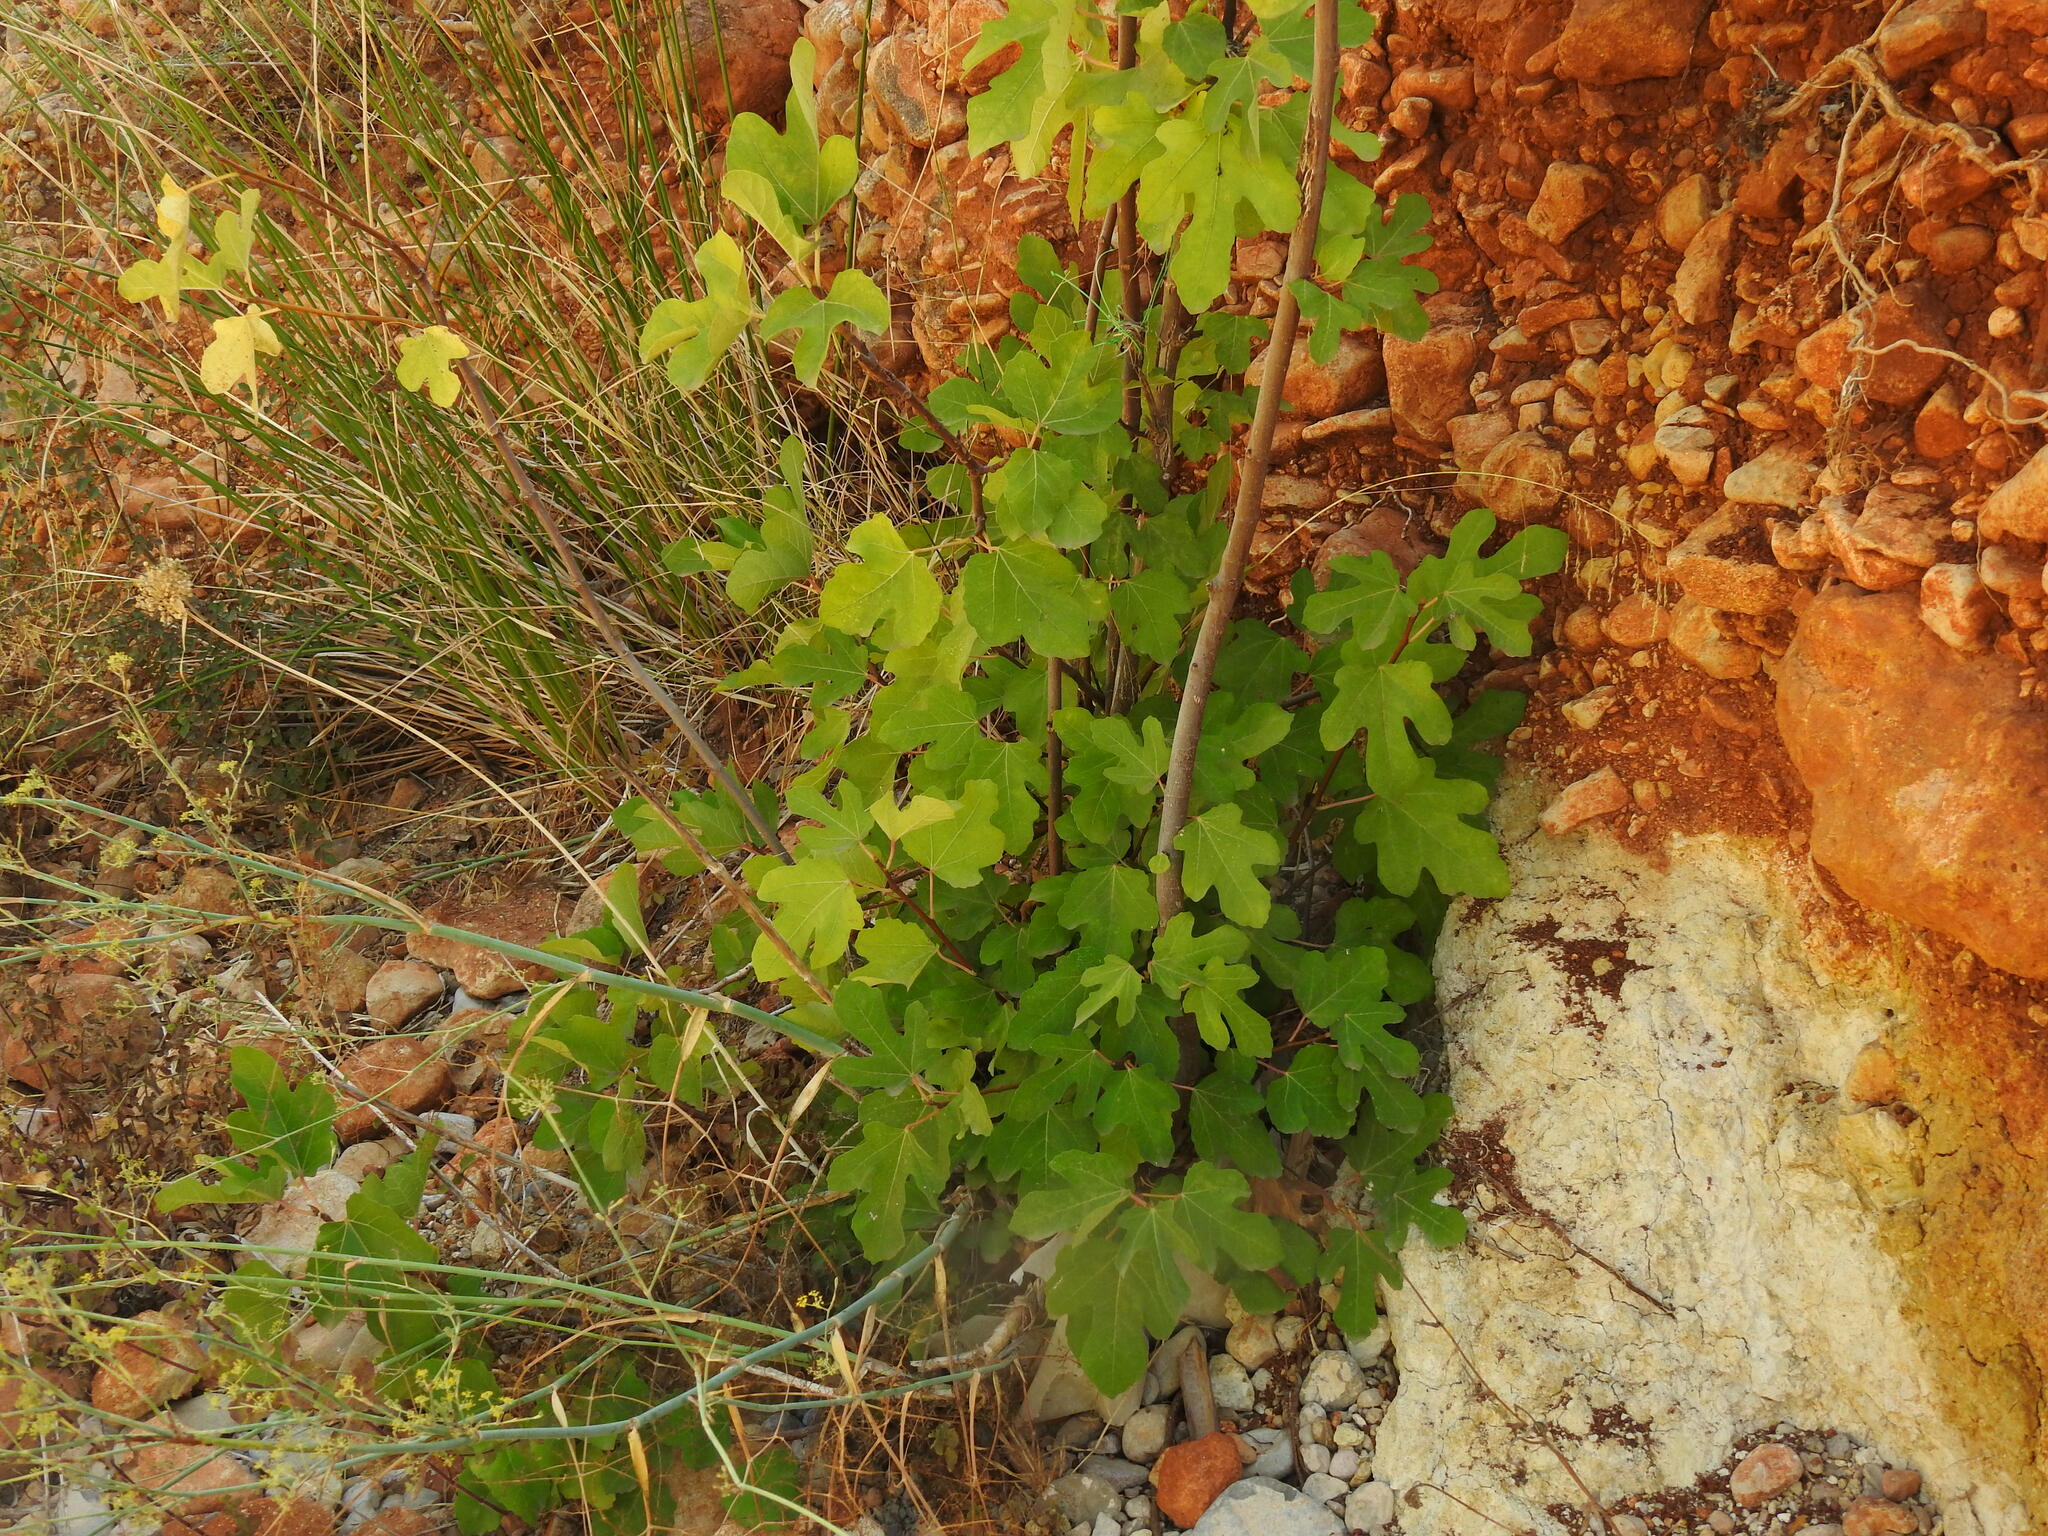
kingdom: Plantae
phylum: Tracheophyta
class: Magnoliopsida
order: Rosales
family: Moraceae
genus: Ficus
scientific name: Ficus carica
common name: Fig
